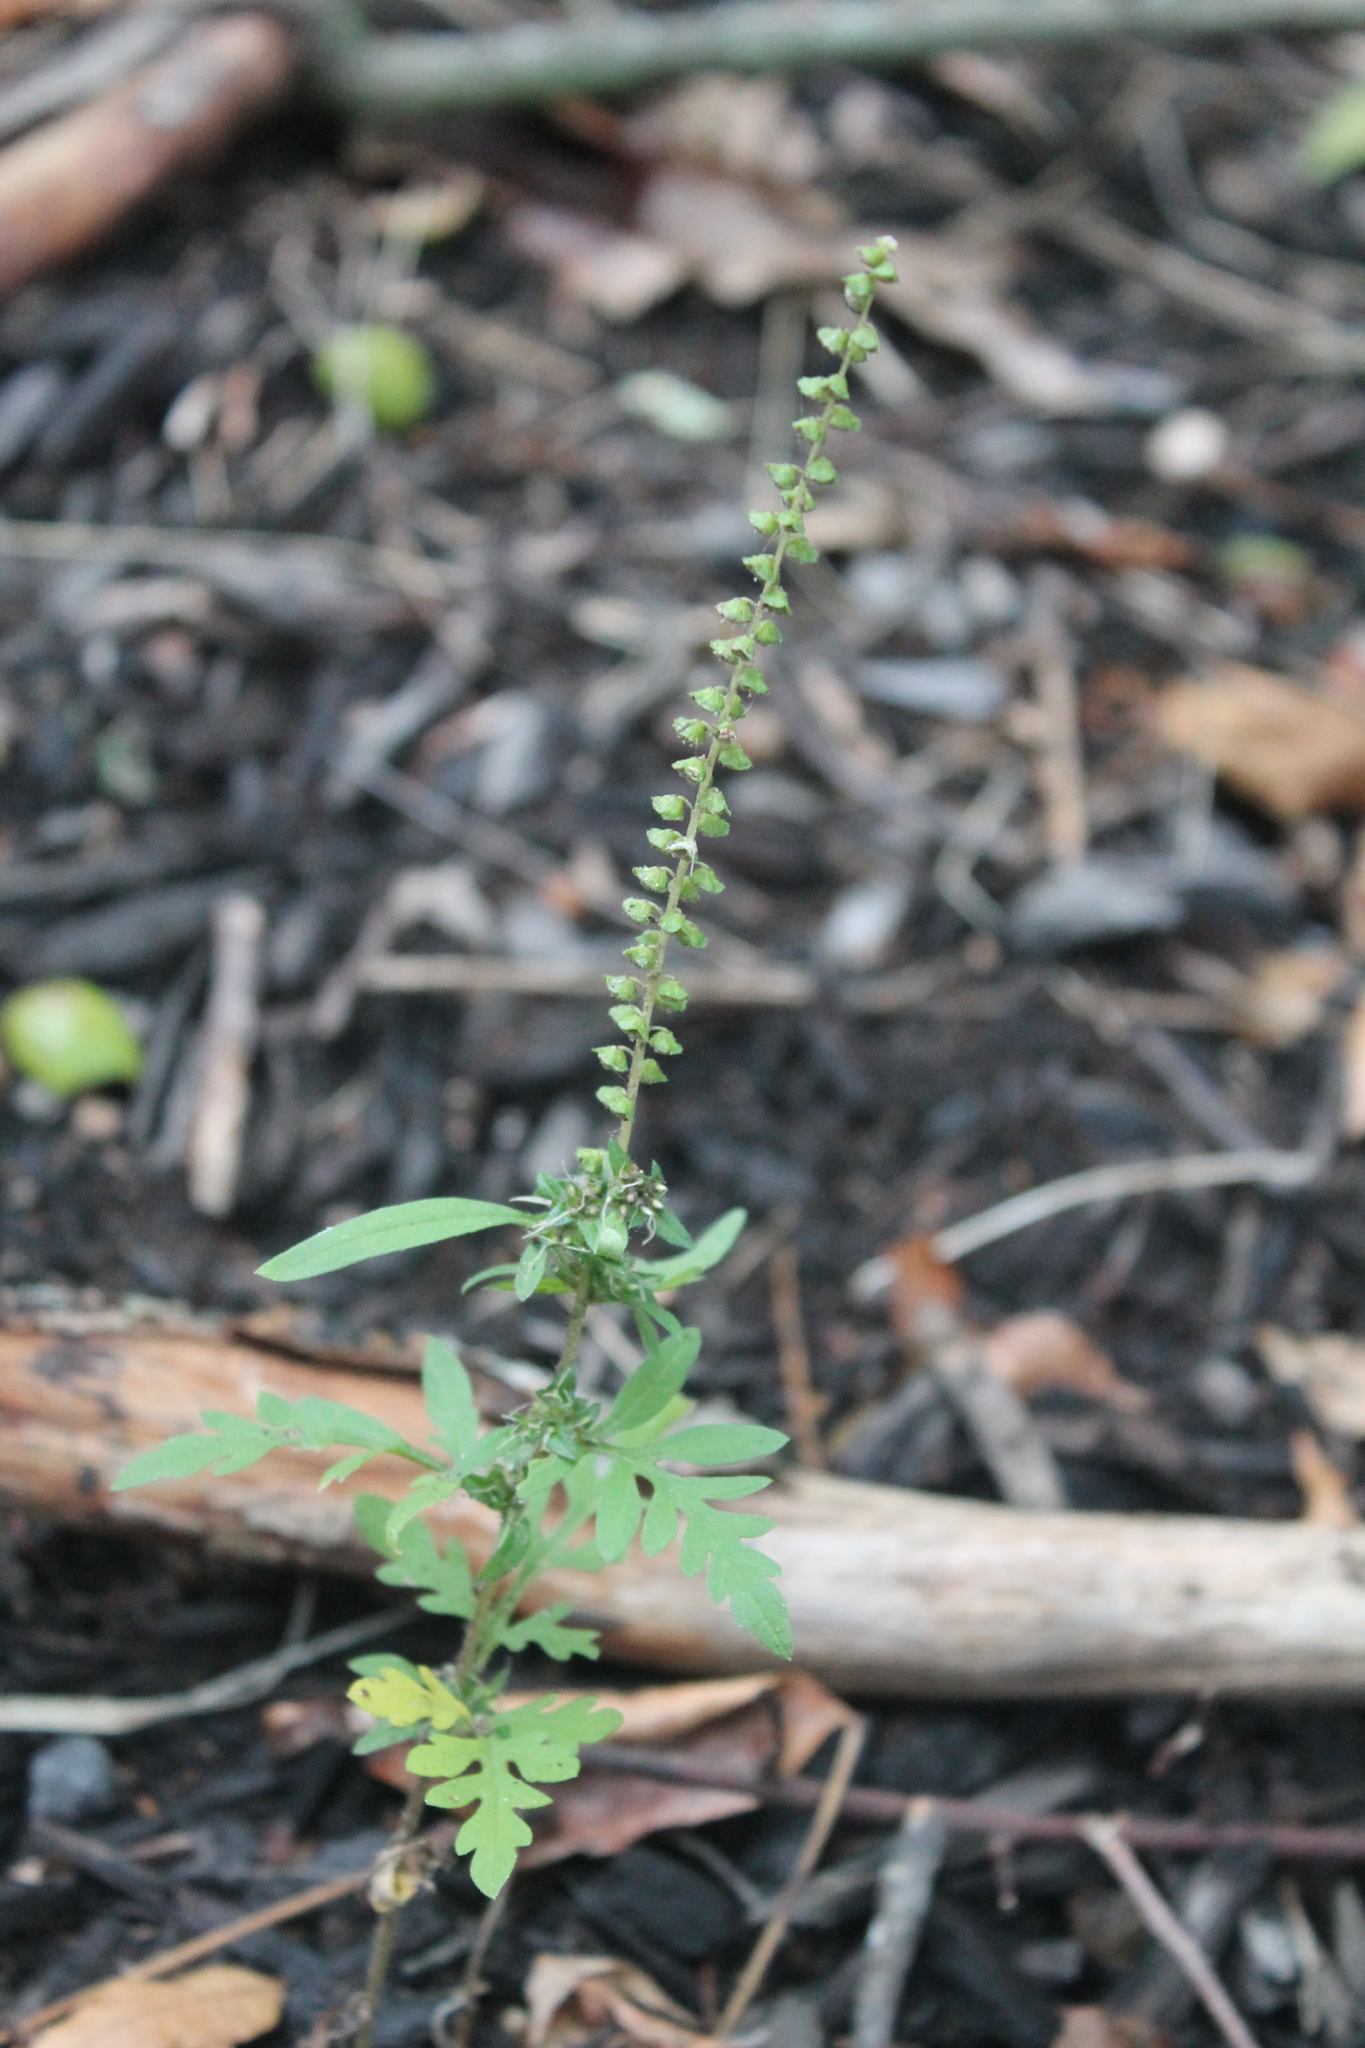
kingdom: Plantae
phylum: Tracheophyta
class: Magnoliopsida
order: Asterales
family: Asteraceae
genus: Ambrosia
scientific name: Ambrosia artemisiifolia
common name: Annual ragweed
